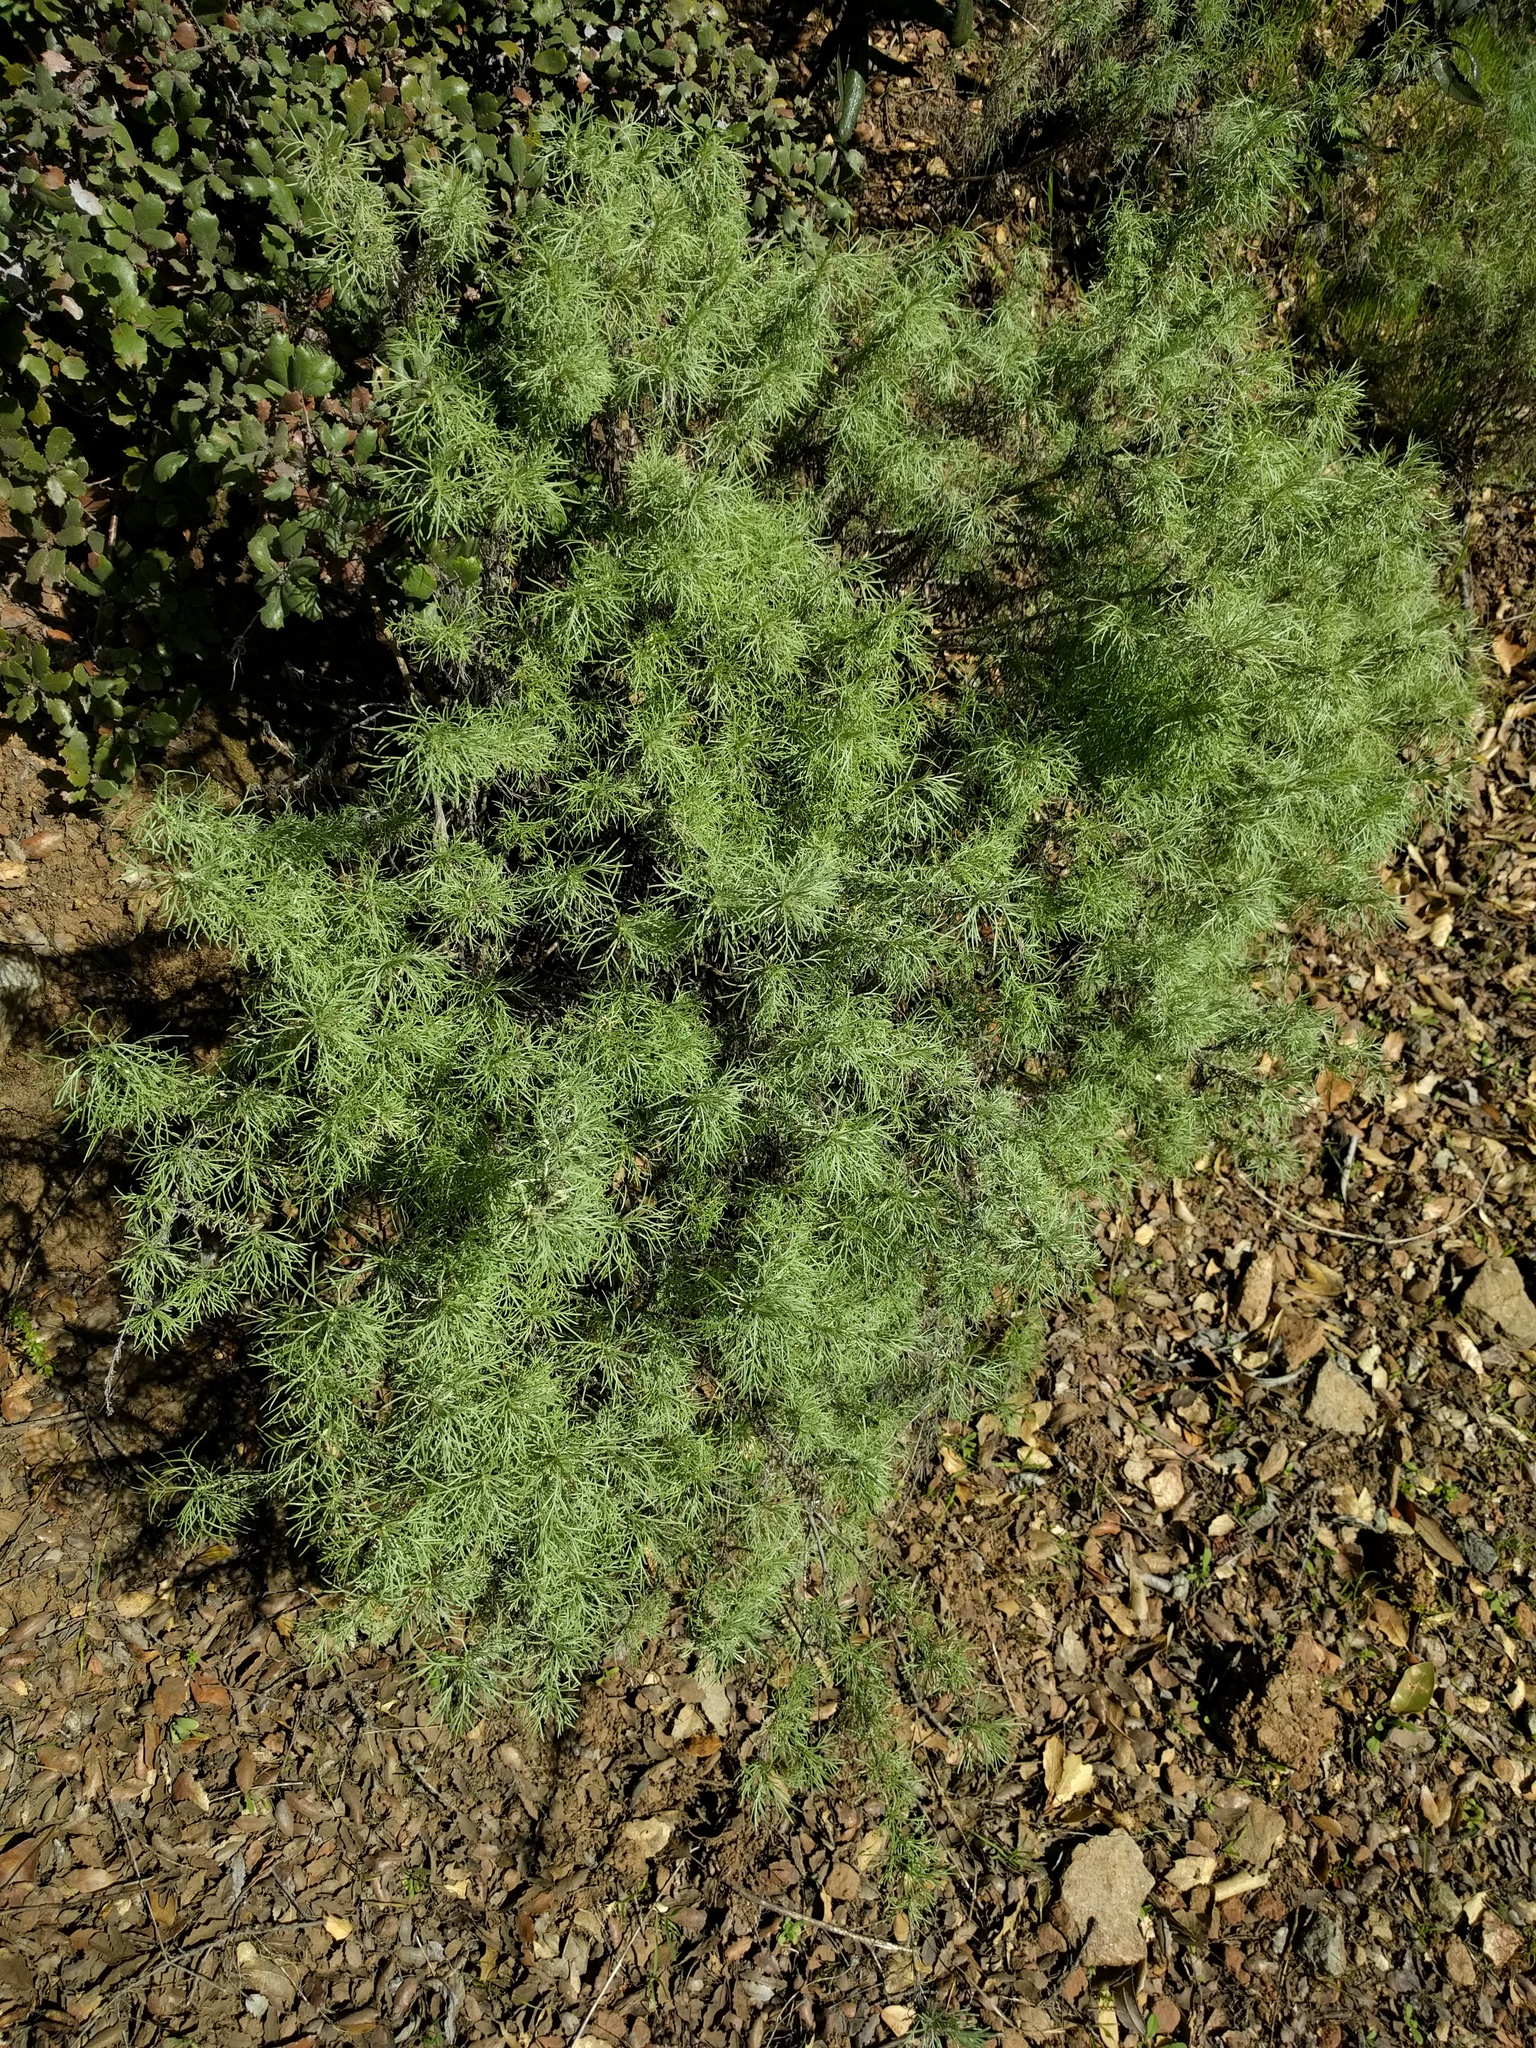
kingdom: Plantae
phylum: Tracheophyta
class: Magnoliopsida
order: Asterales
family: Asteraceae
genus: Artemisia
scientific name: Artemisia californica
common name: California sagebrush
